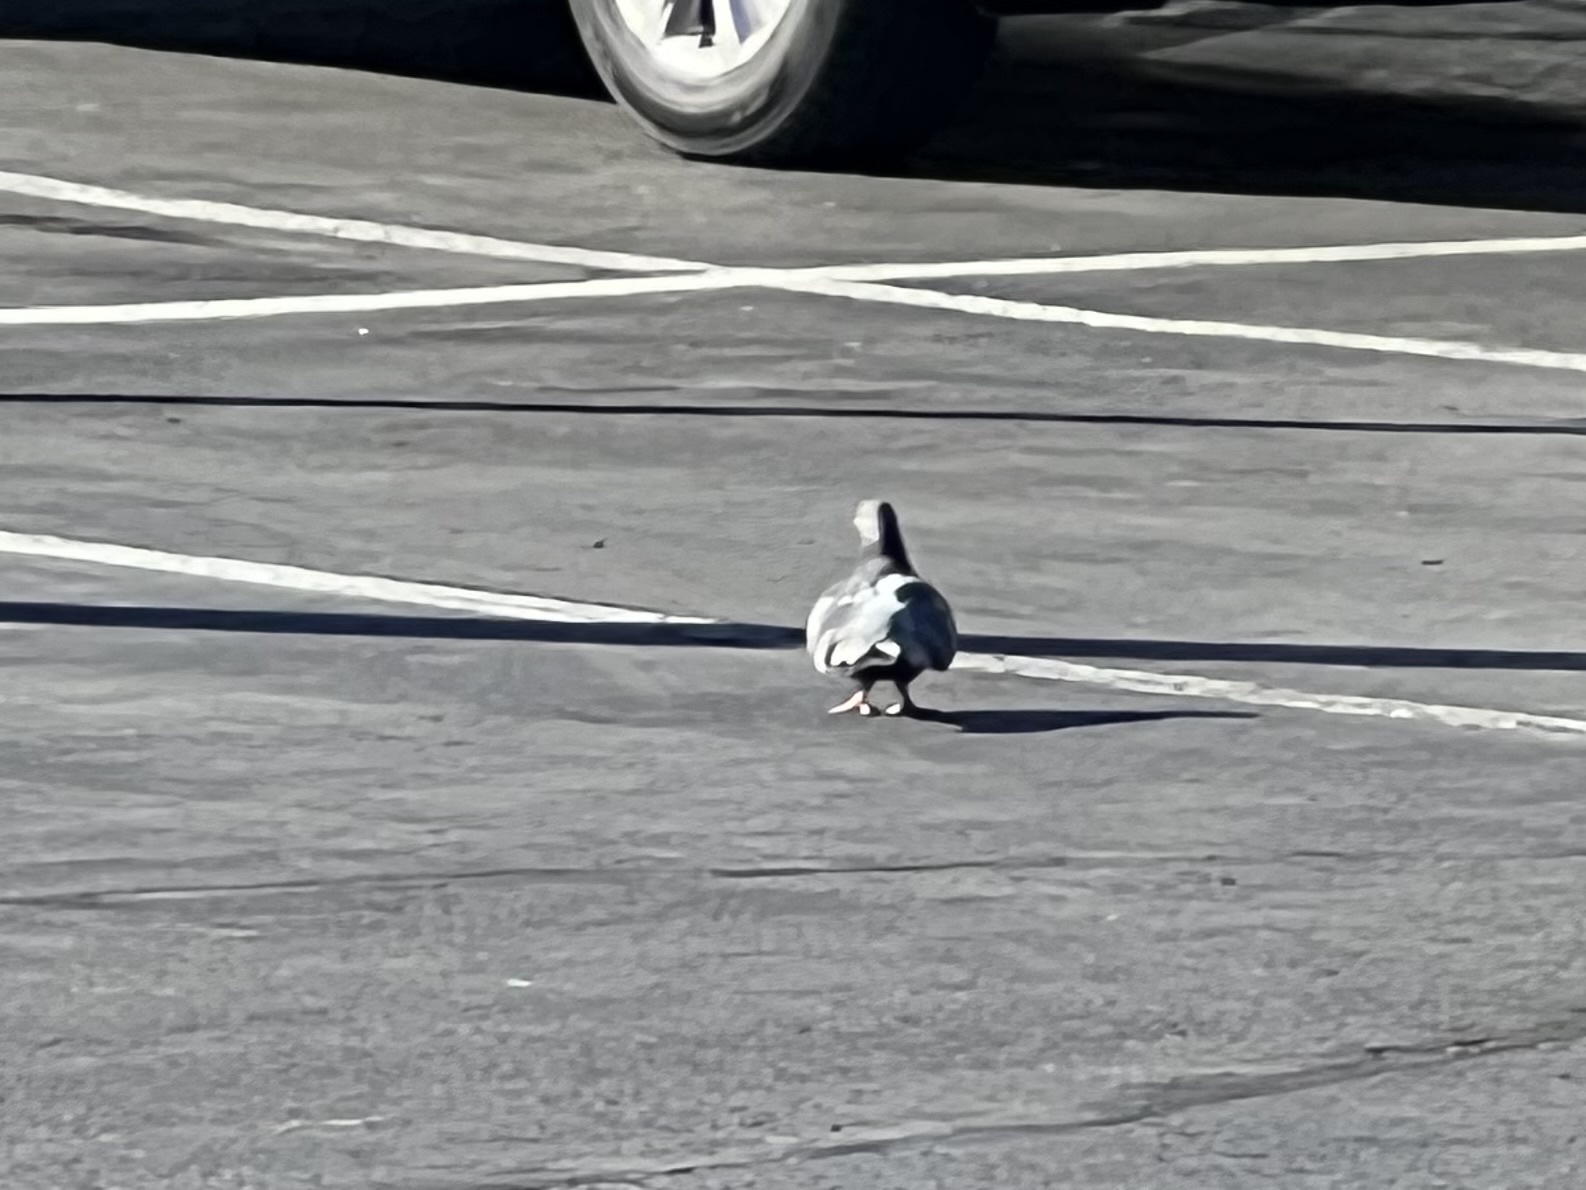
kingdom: Animalia
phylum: Chordata
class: Aves
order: Columbiformes
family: Columbidae
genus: Columba
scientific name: Columba livia
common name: Rock pigeon
